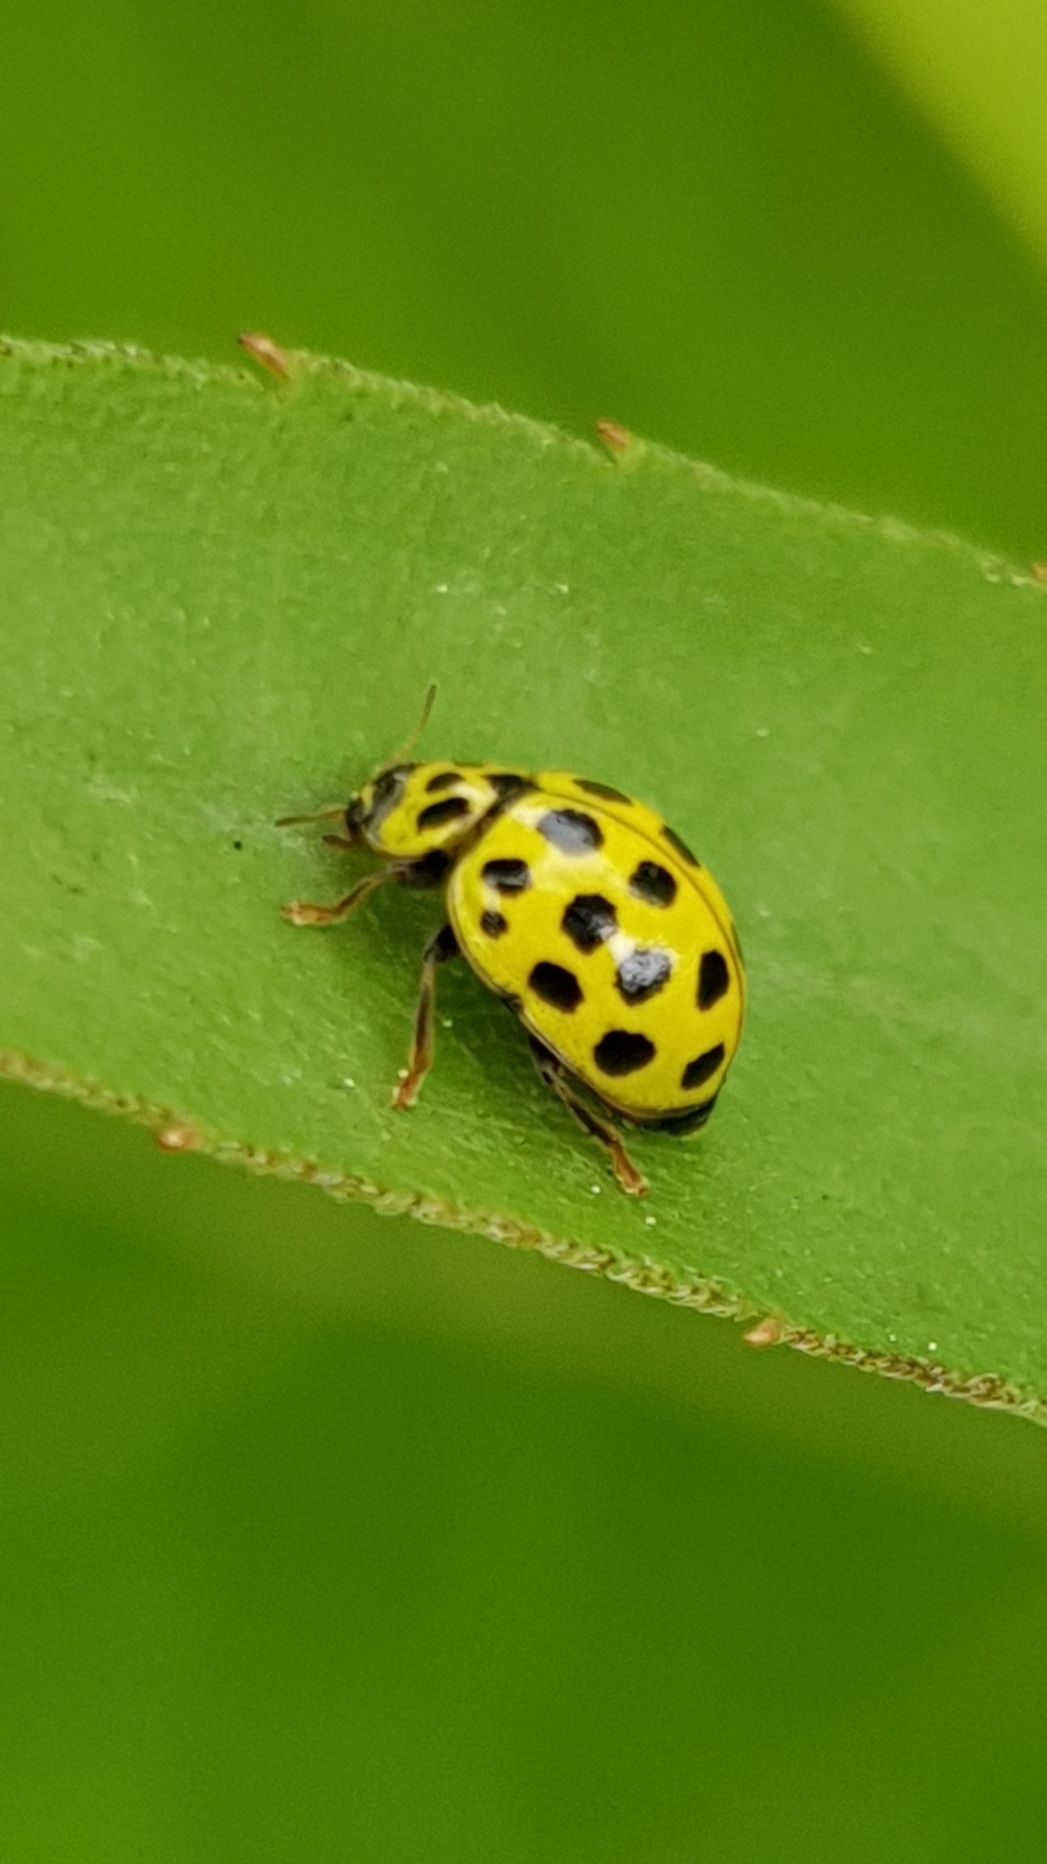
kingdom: Animalia
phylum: Arthropoda
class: Insecta
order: Coleoptera
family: Coccinellidae
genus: Psyllobora
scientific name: Psyllobora vigintiduopunctata
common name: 22-spot ladybird
